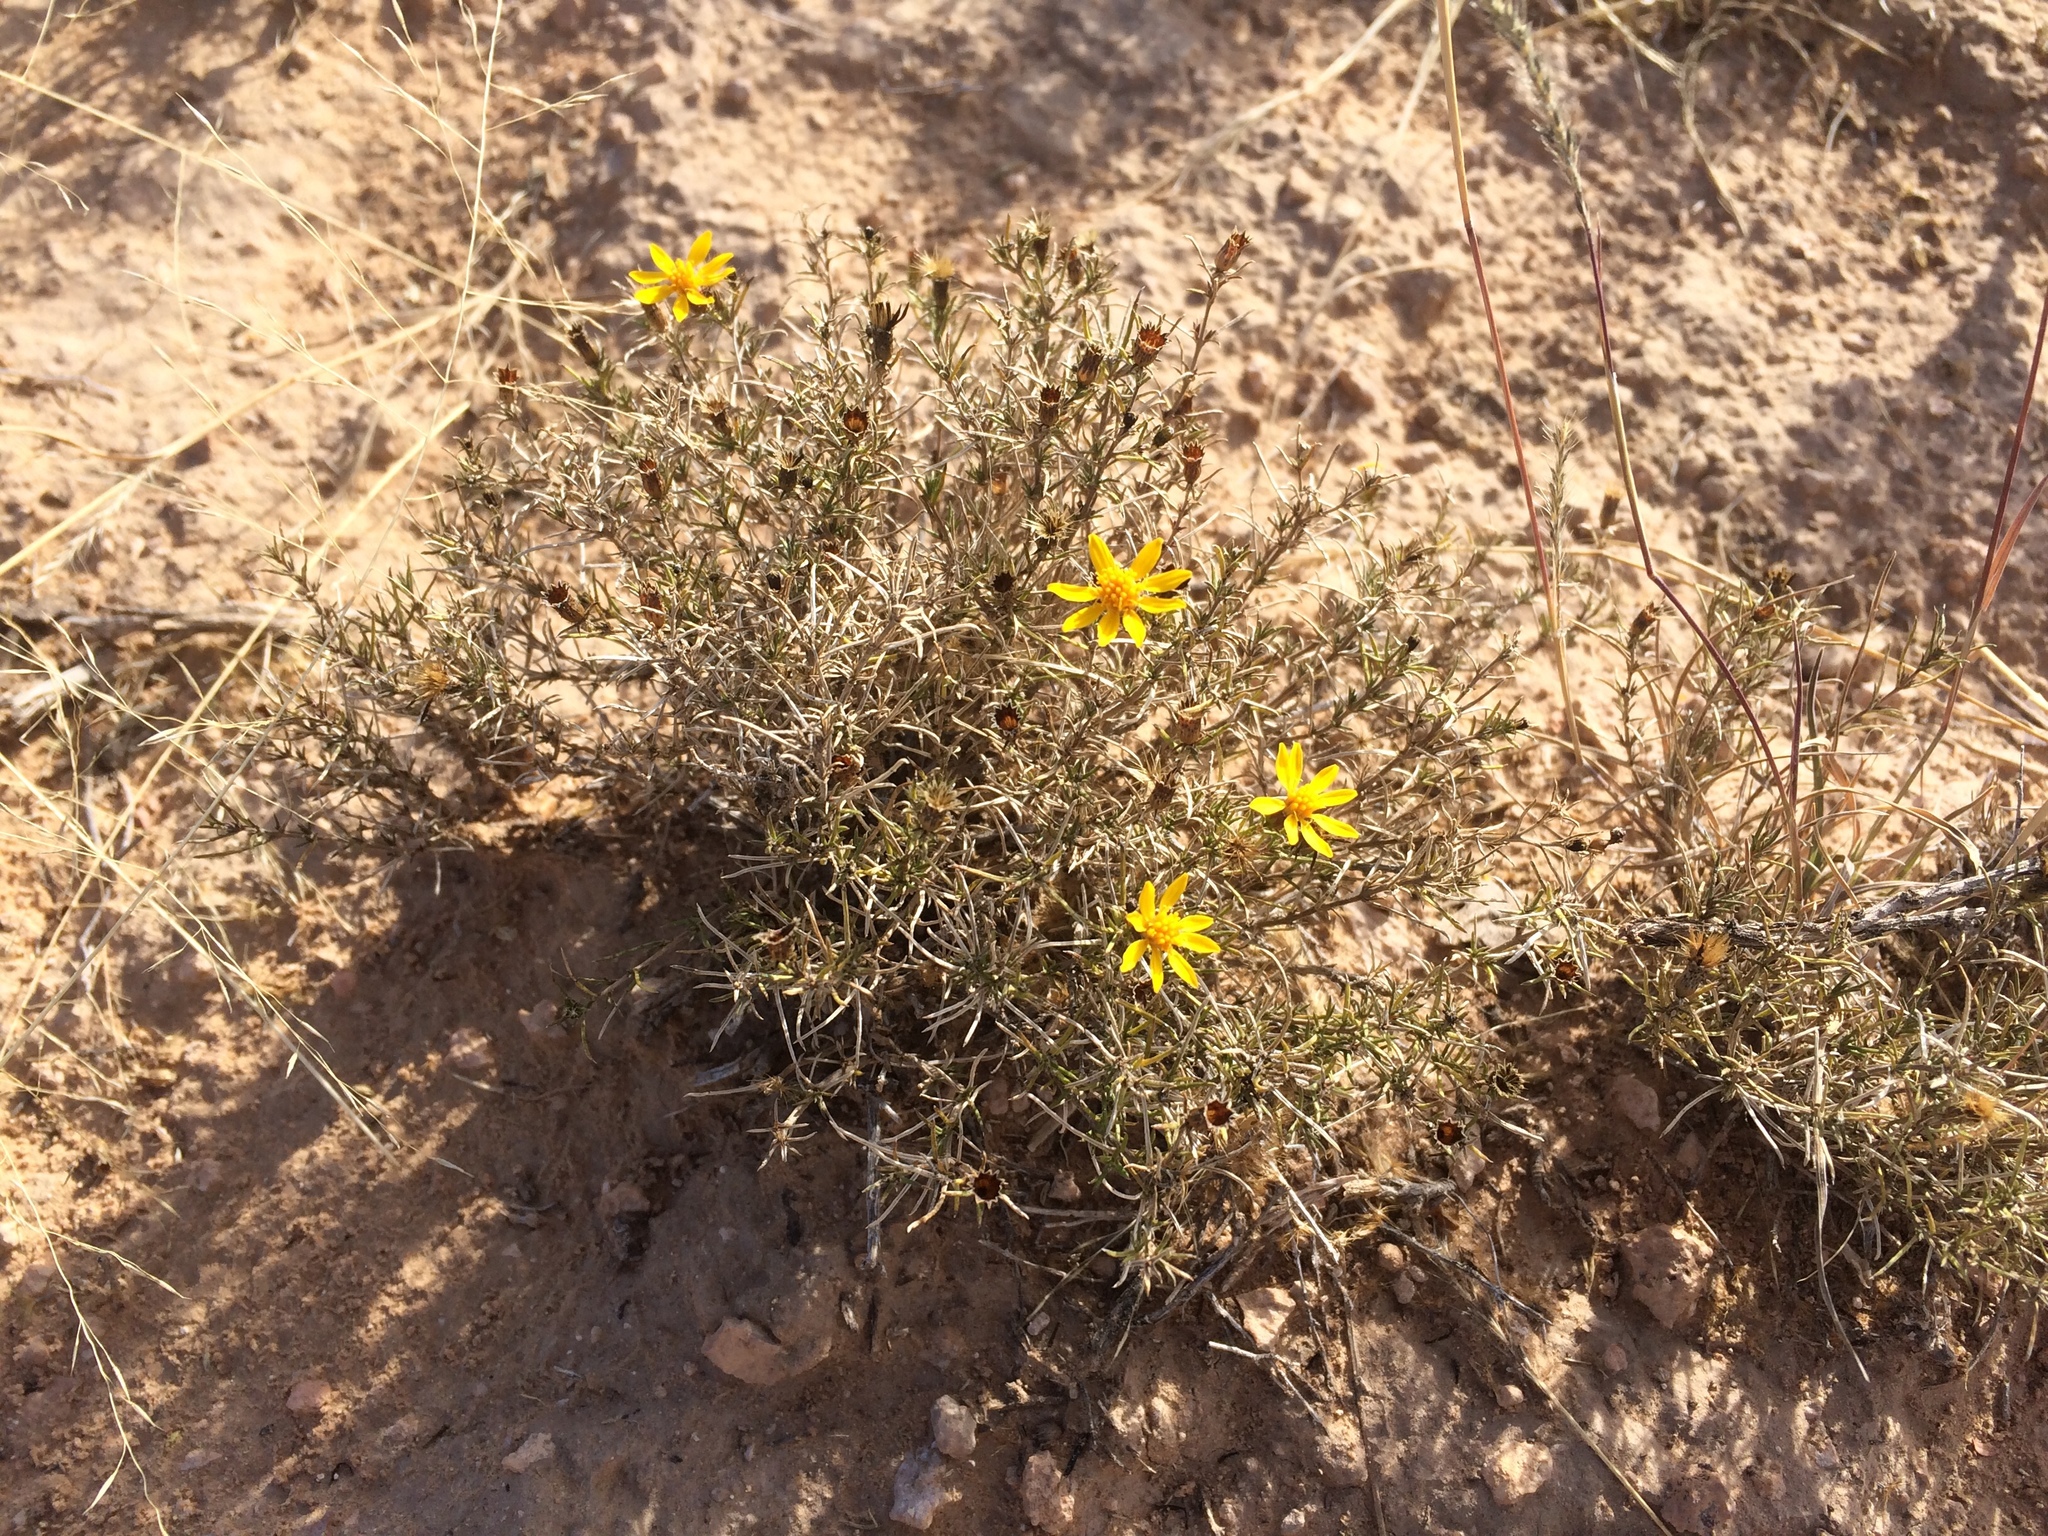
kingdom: Plantae
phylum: Tracheophyta
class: Magnoliopsida
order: Asterales
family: Asteraceae
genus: Thymophylla
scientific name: Thymophylla acerosa
